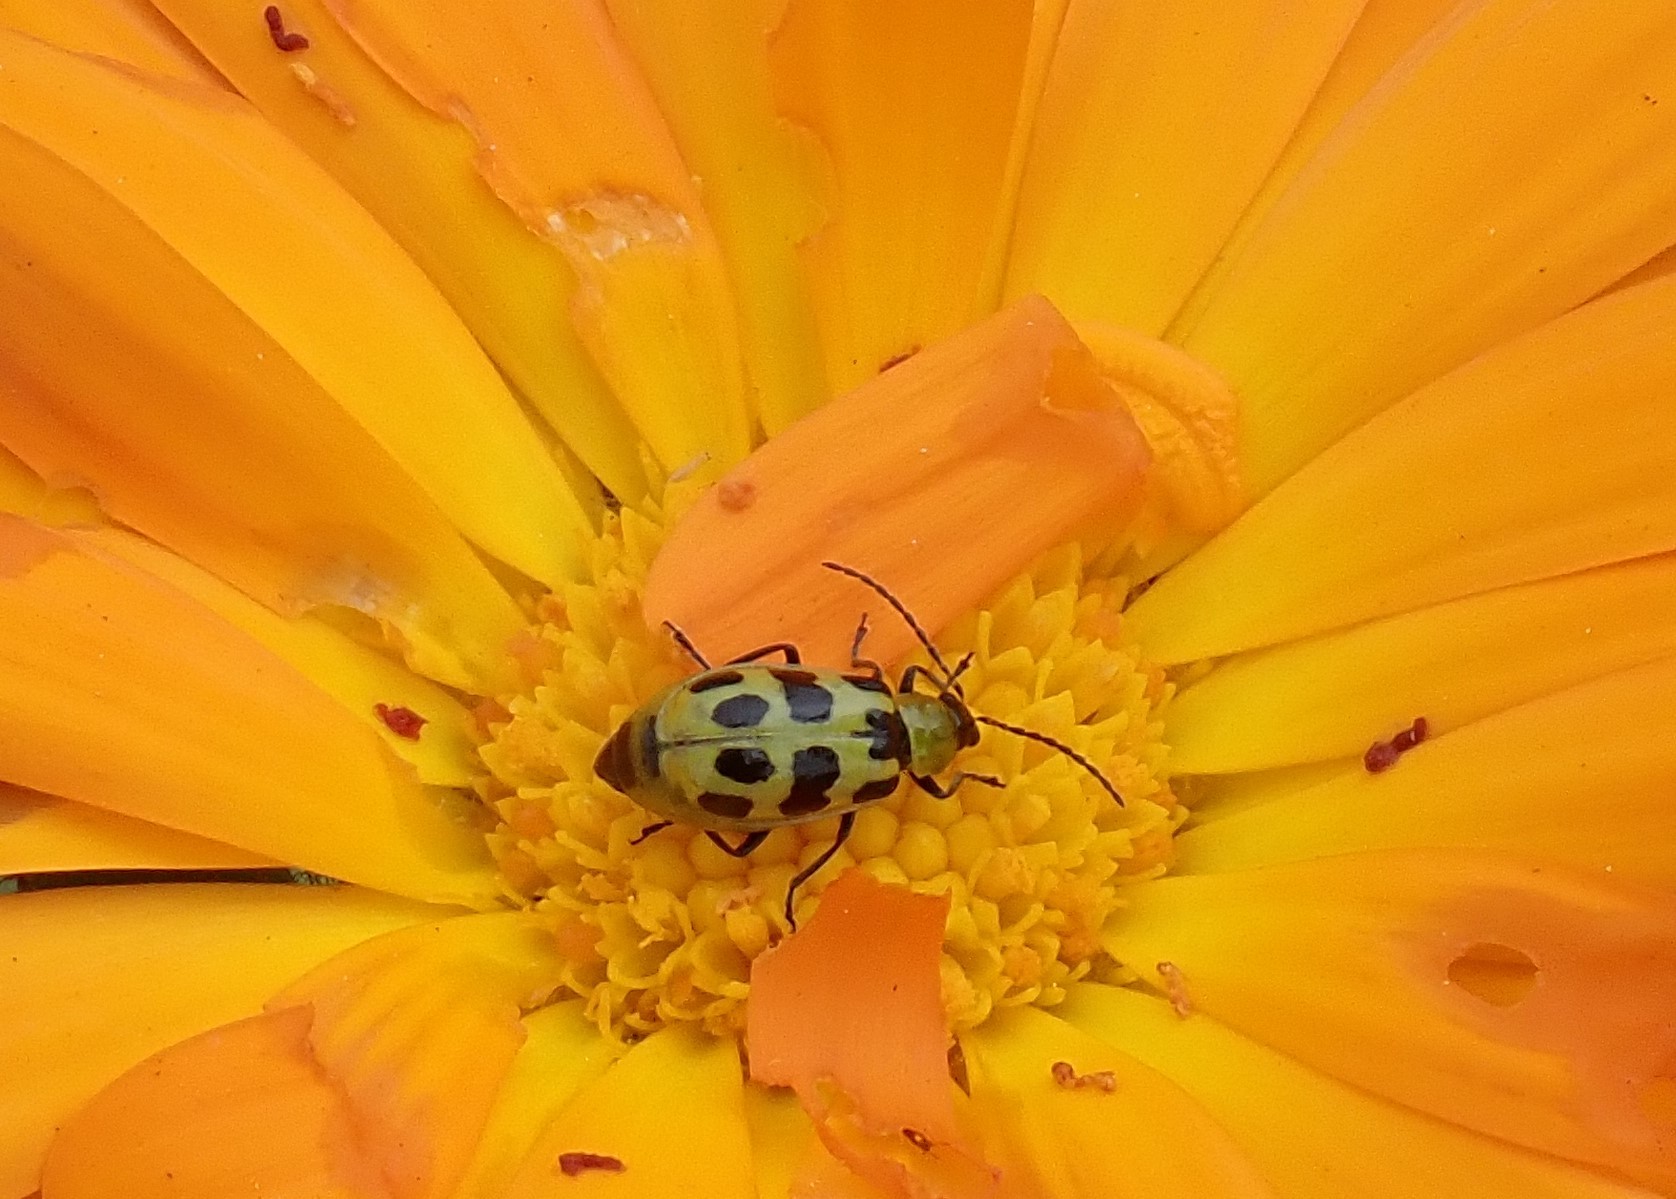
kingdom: Animalia
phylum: Arthropoda
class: Insecta
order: Coleoptera
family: Chrysomelidae
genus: Diabrotica
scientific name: Diabrotica undecimpunctata
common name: Spotted cucumber beetle
